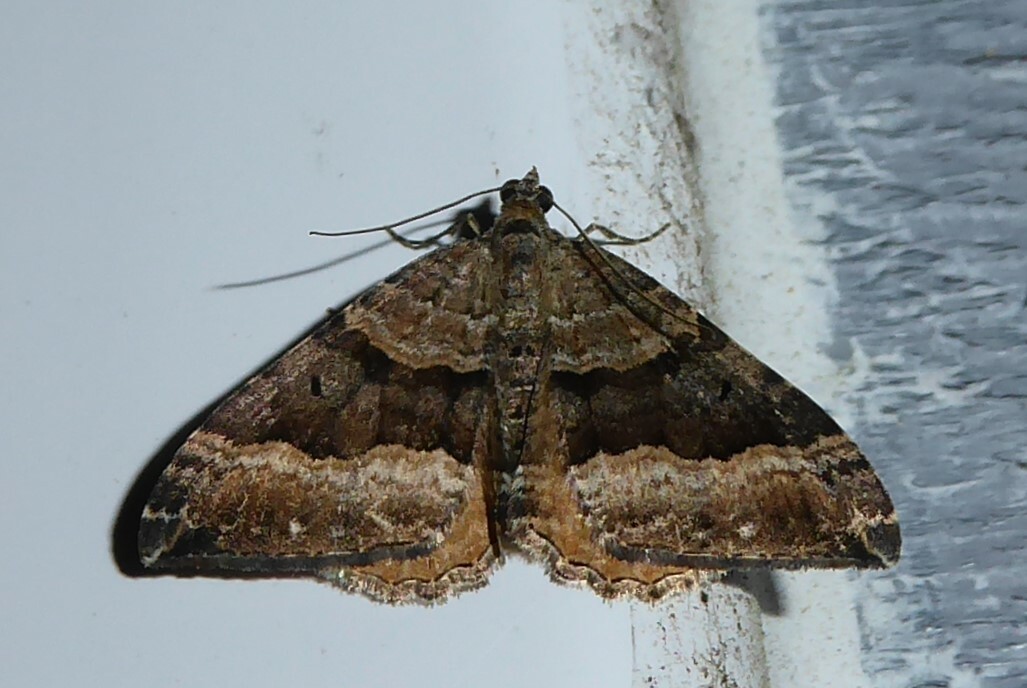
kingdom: Animalia
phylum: Arthropoda
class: Insecta
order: Lepidoptera
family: Geometridae
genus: Hydriomena
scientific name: Hydriomena deltoidata
